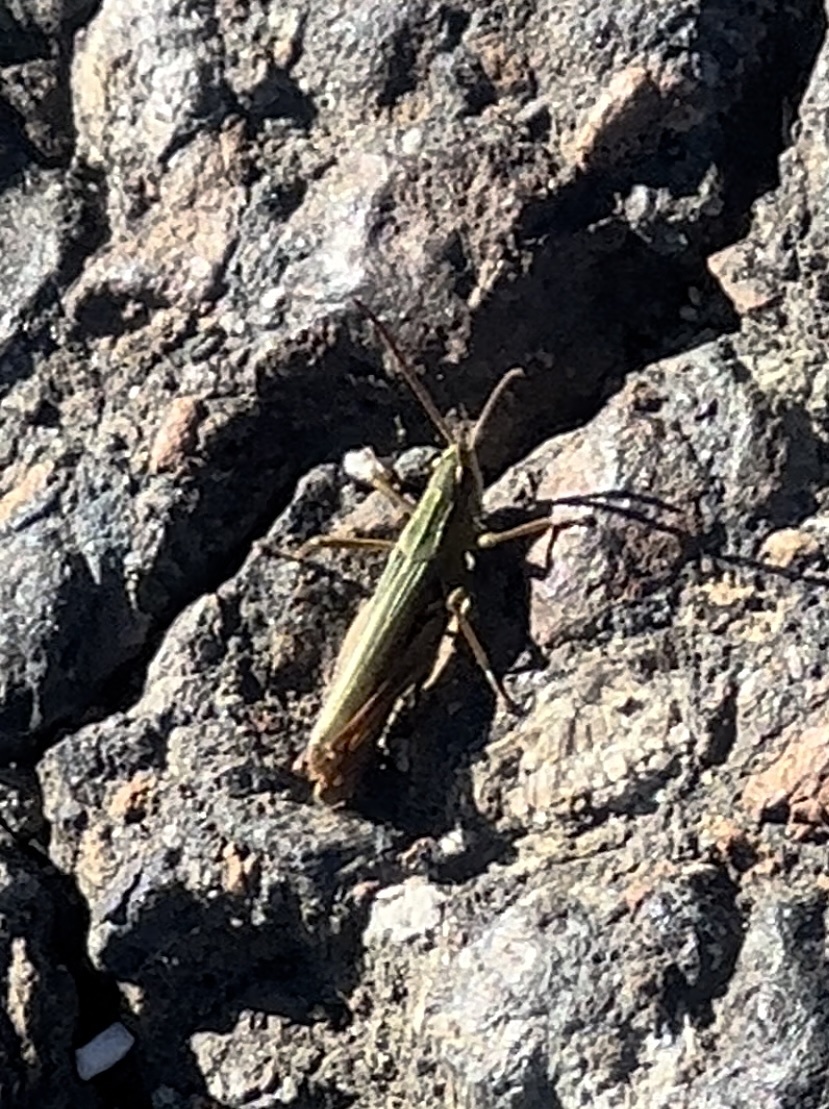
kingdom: Animalia
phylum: Arthropoda
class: Insecta
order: Orthoptera
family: Acrididae
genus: Chorthippus
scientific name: Chorthippus albomarginatus
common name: Lesser marsh grasshopper
